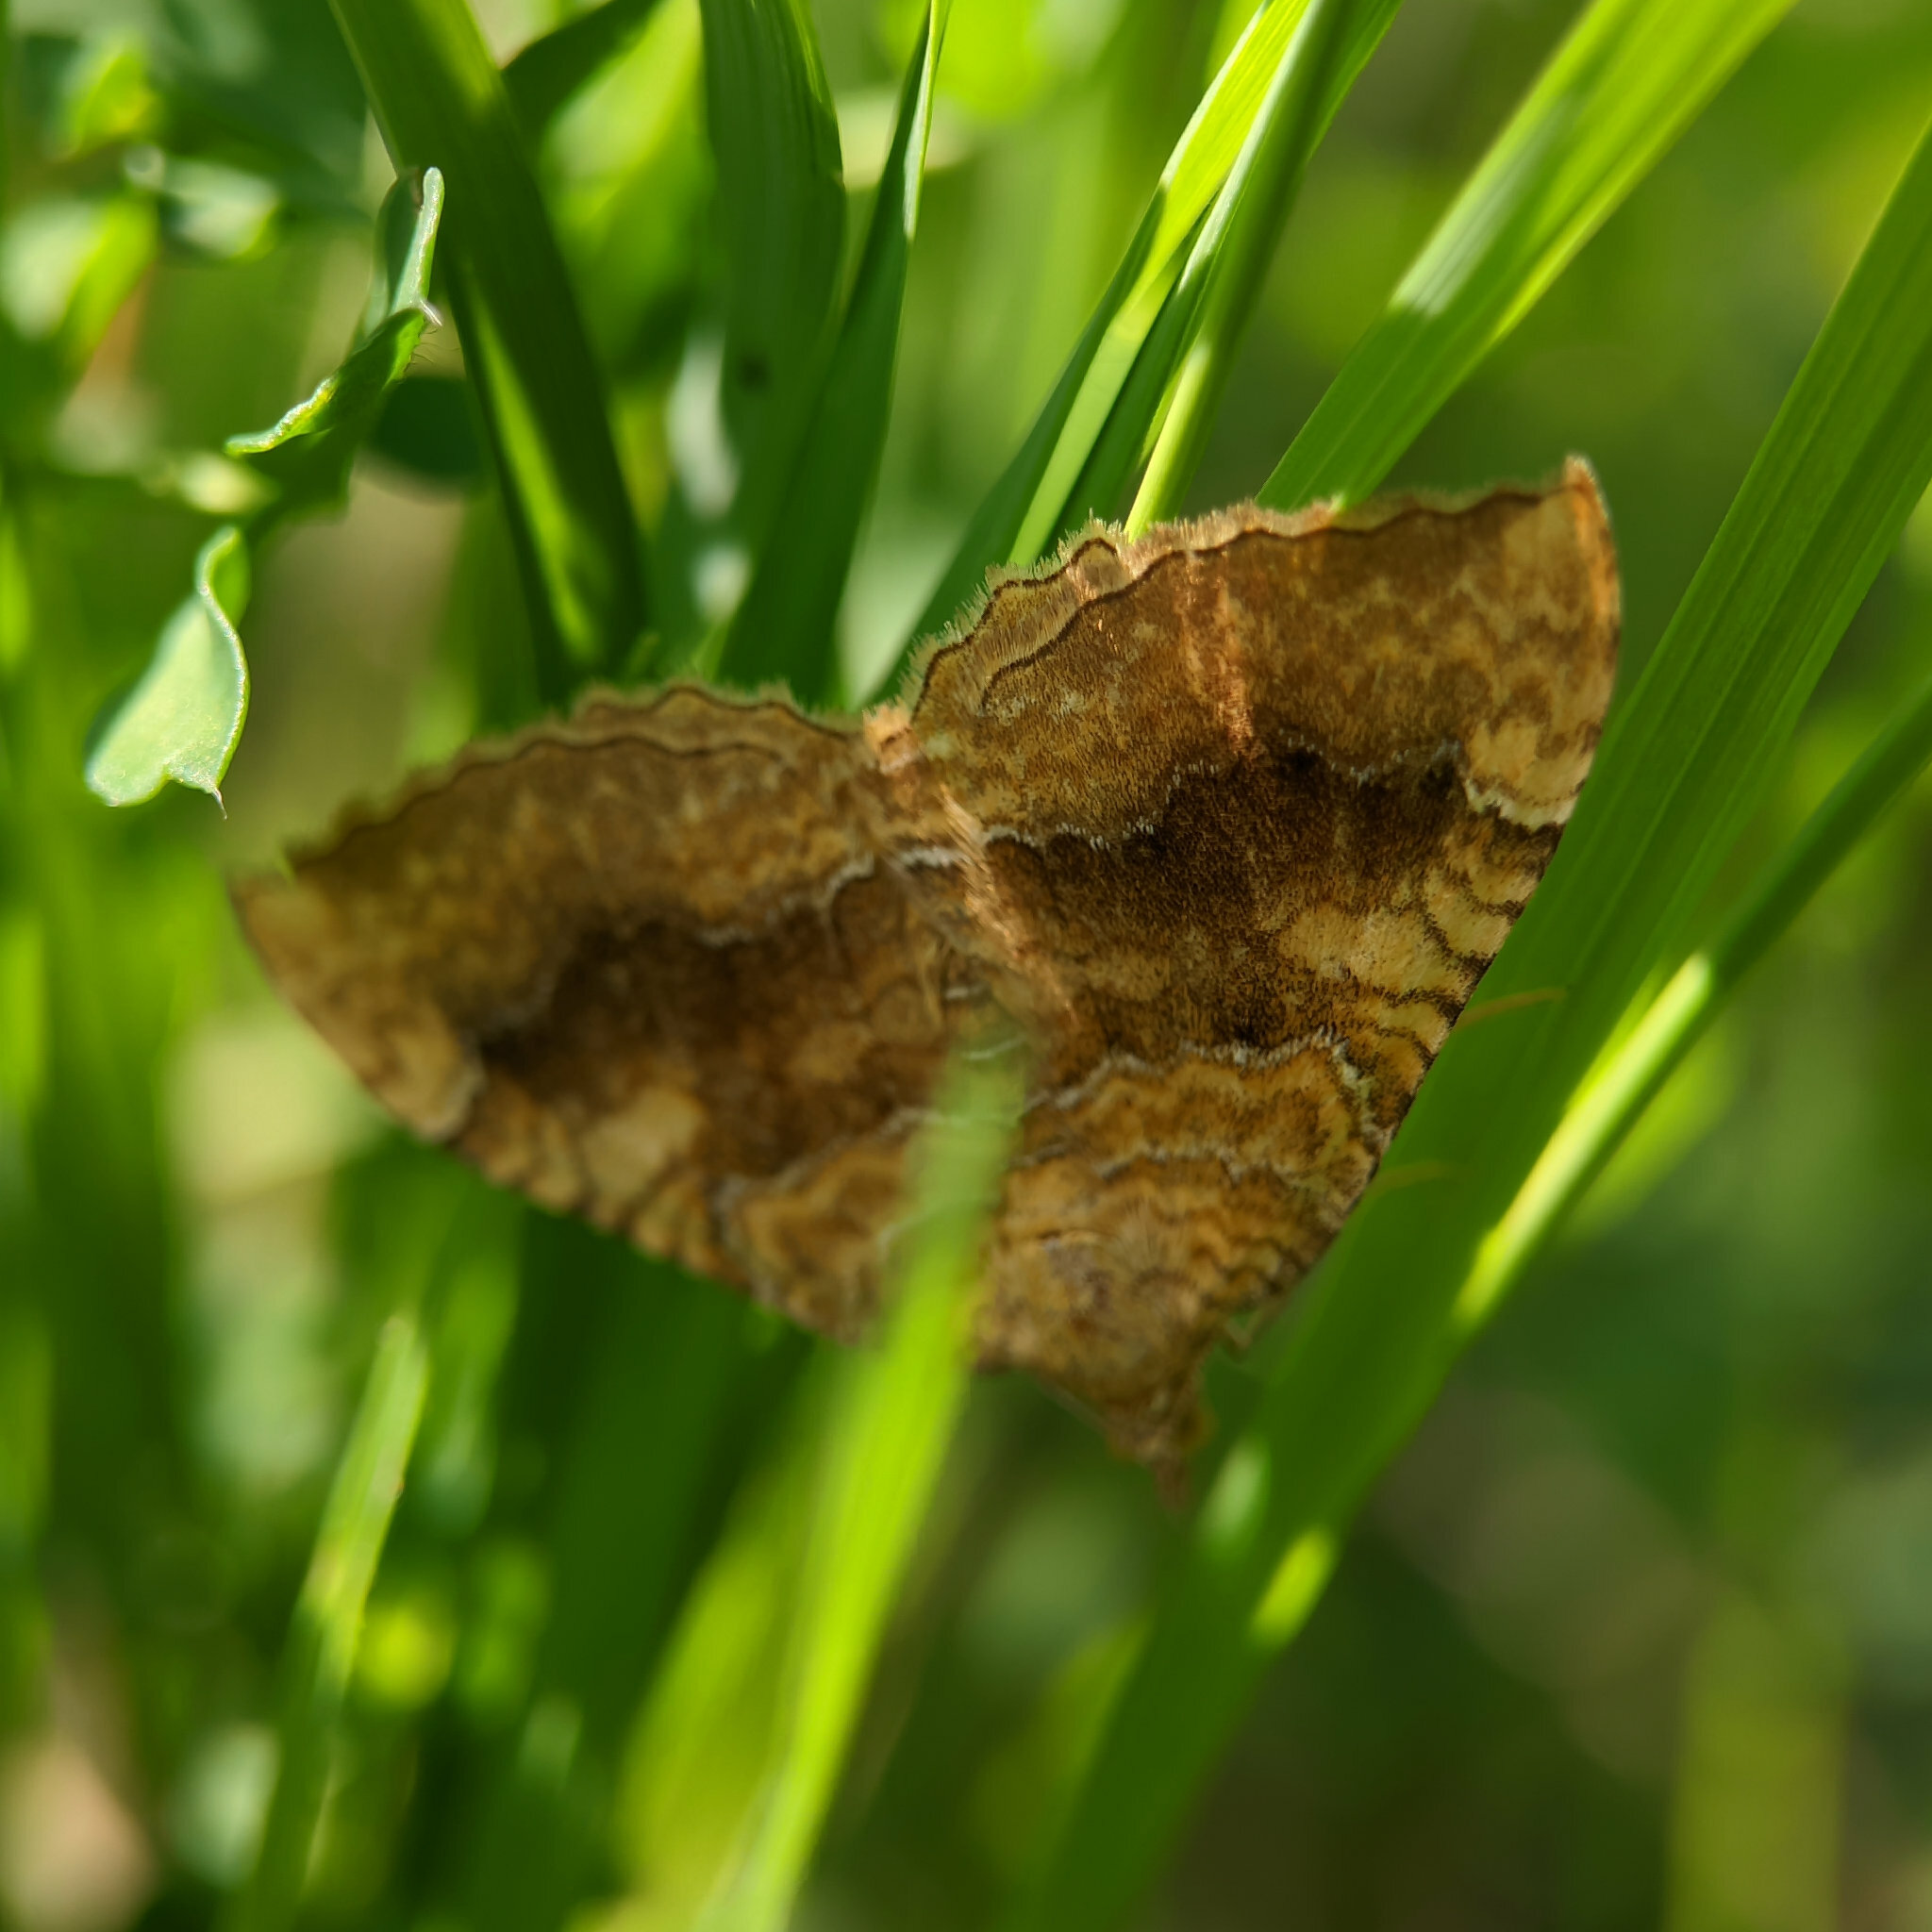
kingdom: Animalia
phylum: Arthropoda
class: Insecta
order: Lepidoptera
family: Geometridae
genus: Camptogramma
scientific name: Camptogramma bilineata
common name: Yellow shell
